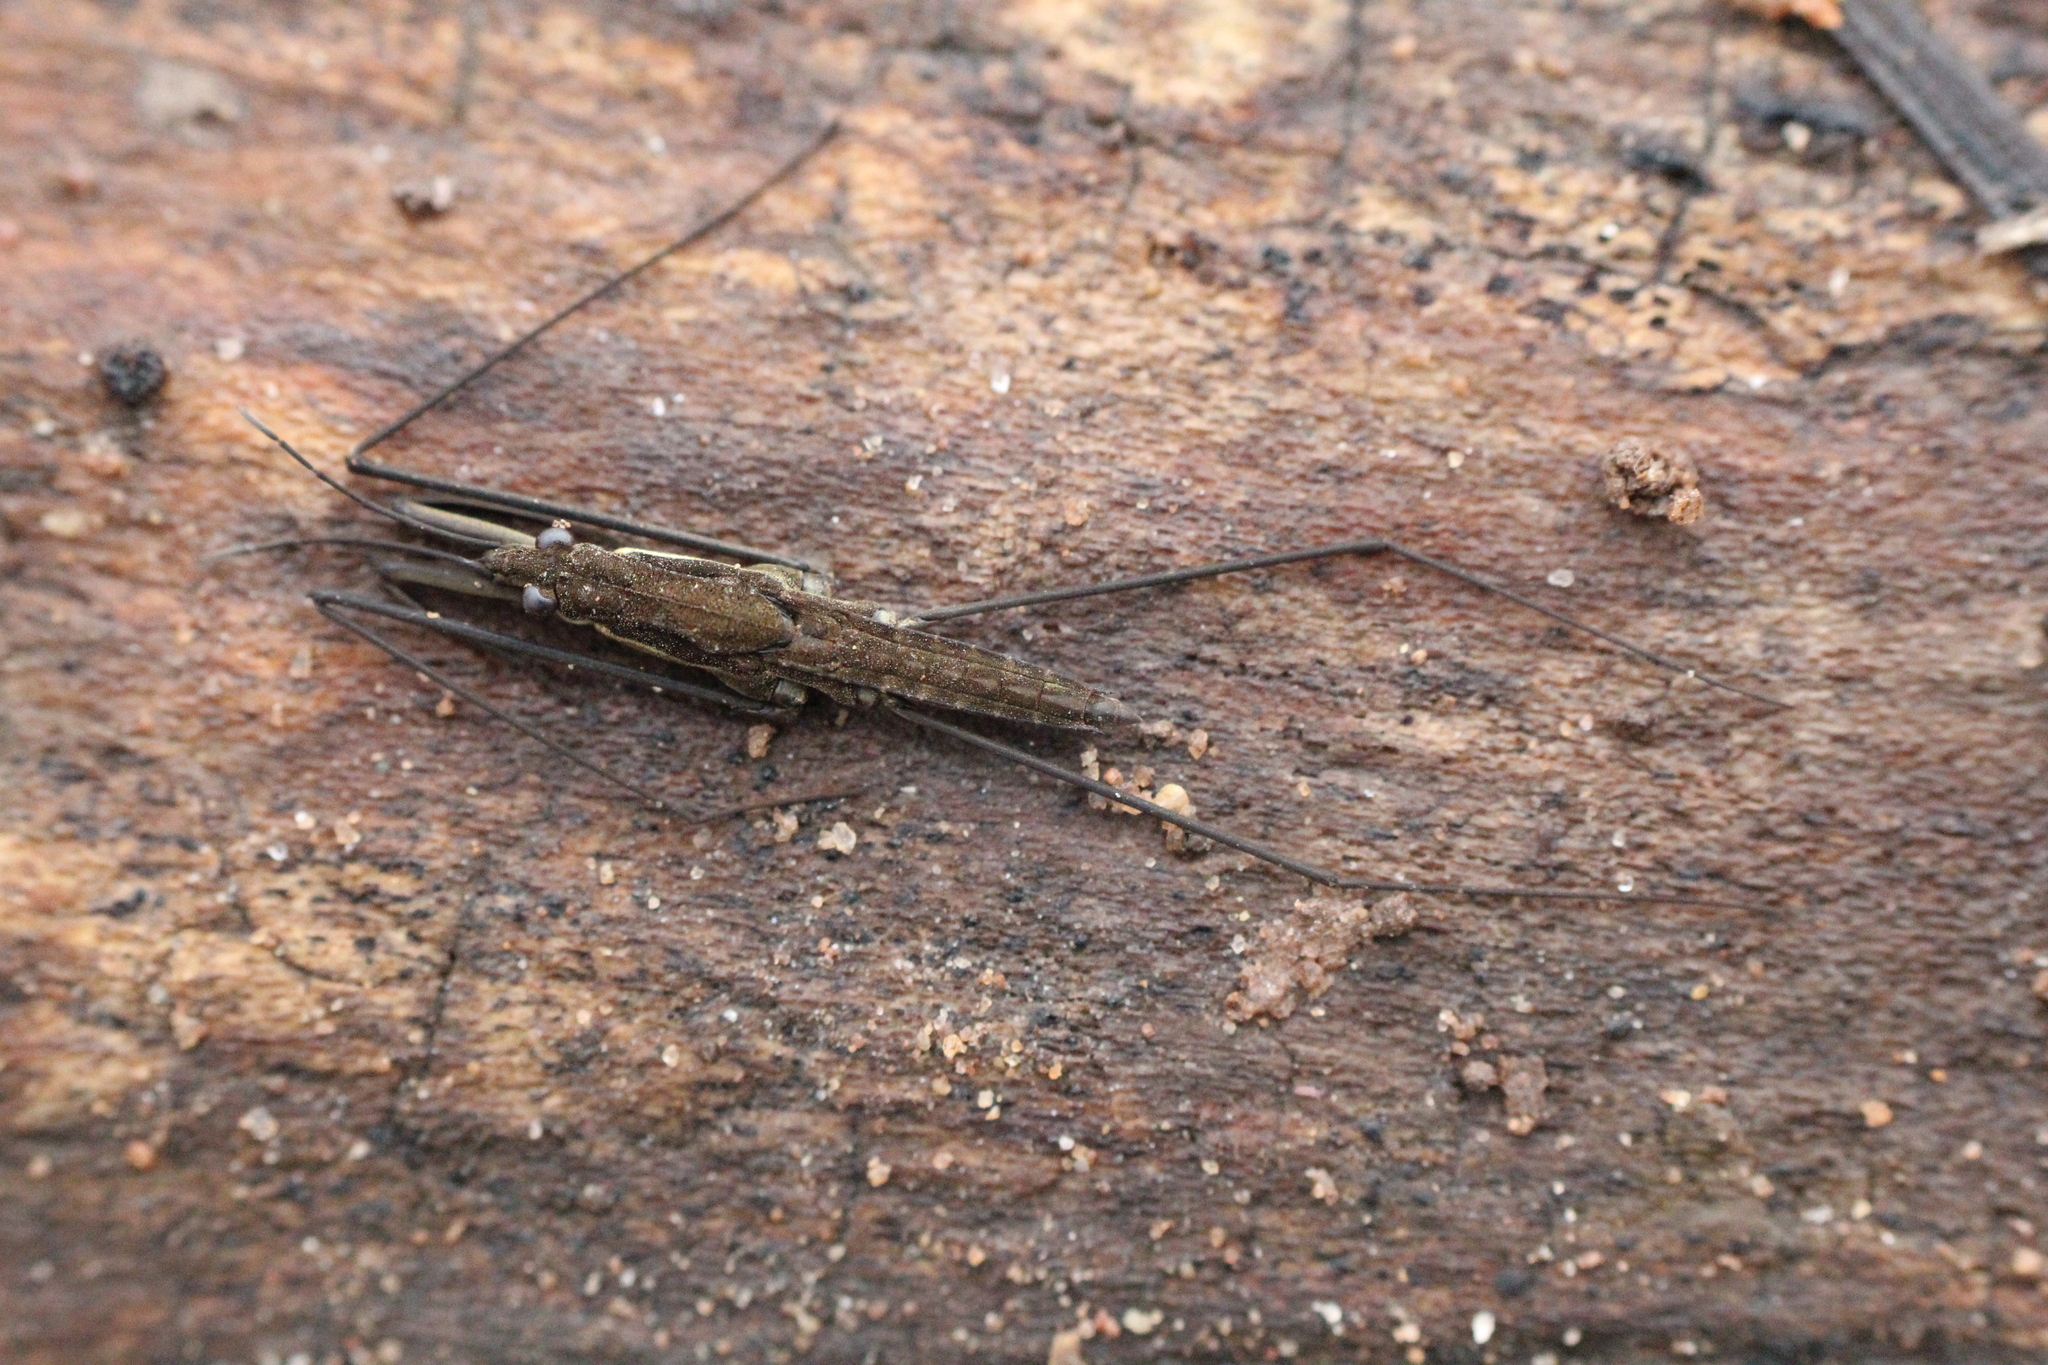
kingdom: Animalia
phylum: Arthropoda
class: Insecta
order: Hemiptera
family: Gerridae
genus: Aquarius
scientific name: Aquarius najas
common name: River skater
